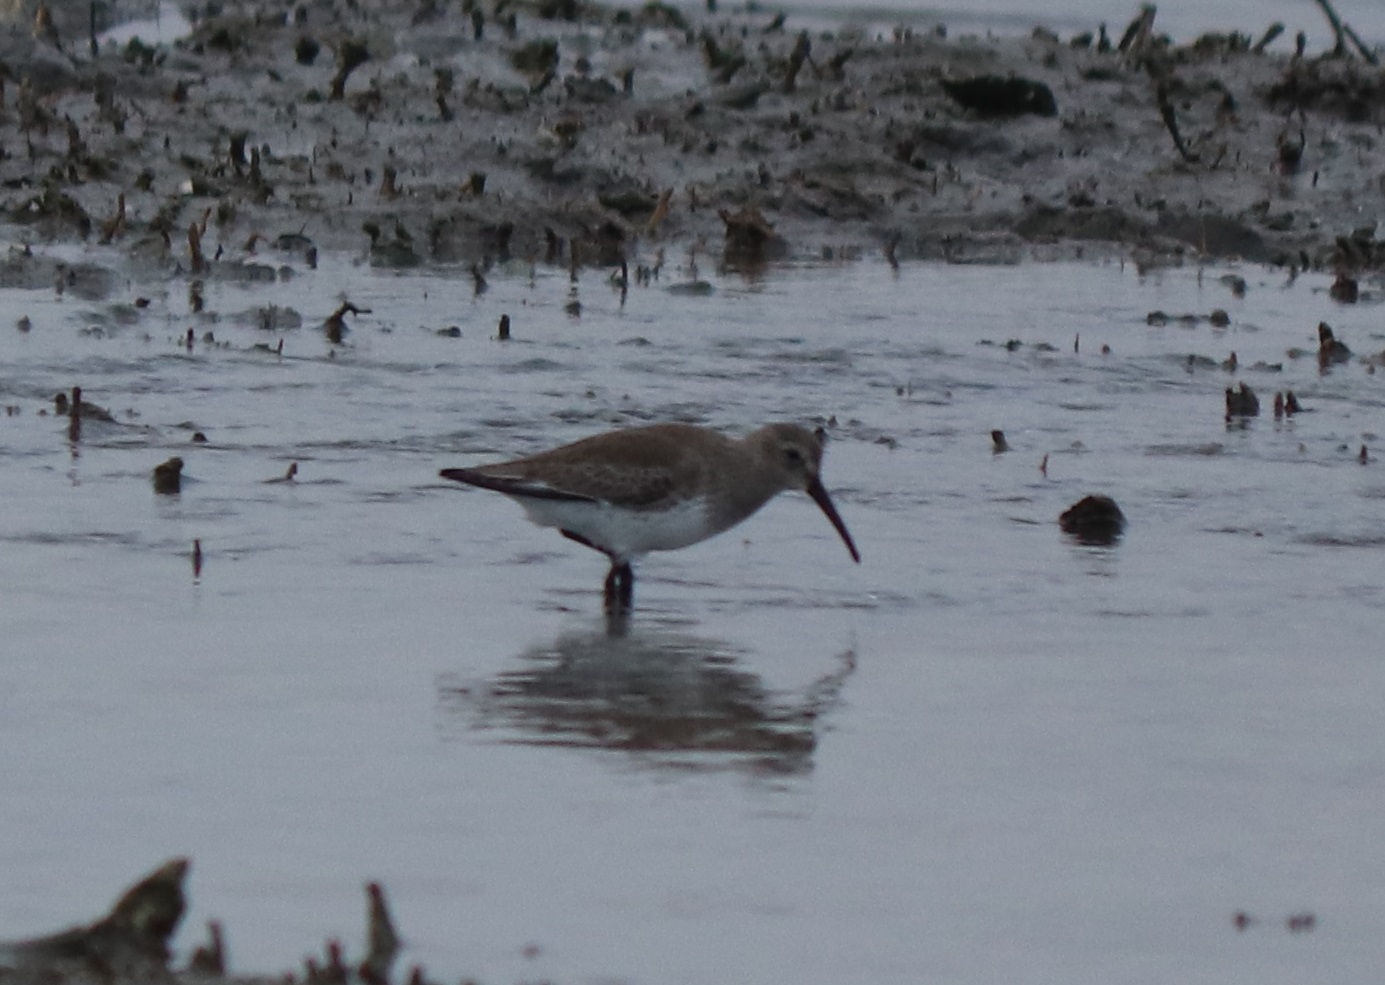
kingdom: Animalia
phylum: Chordata
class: Aves
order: Charadriiformes
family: Scolopacidae
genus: Calidris
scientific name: Calidris alpina
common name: Dunlin
